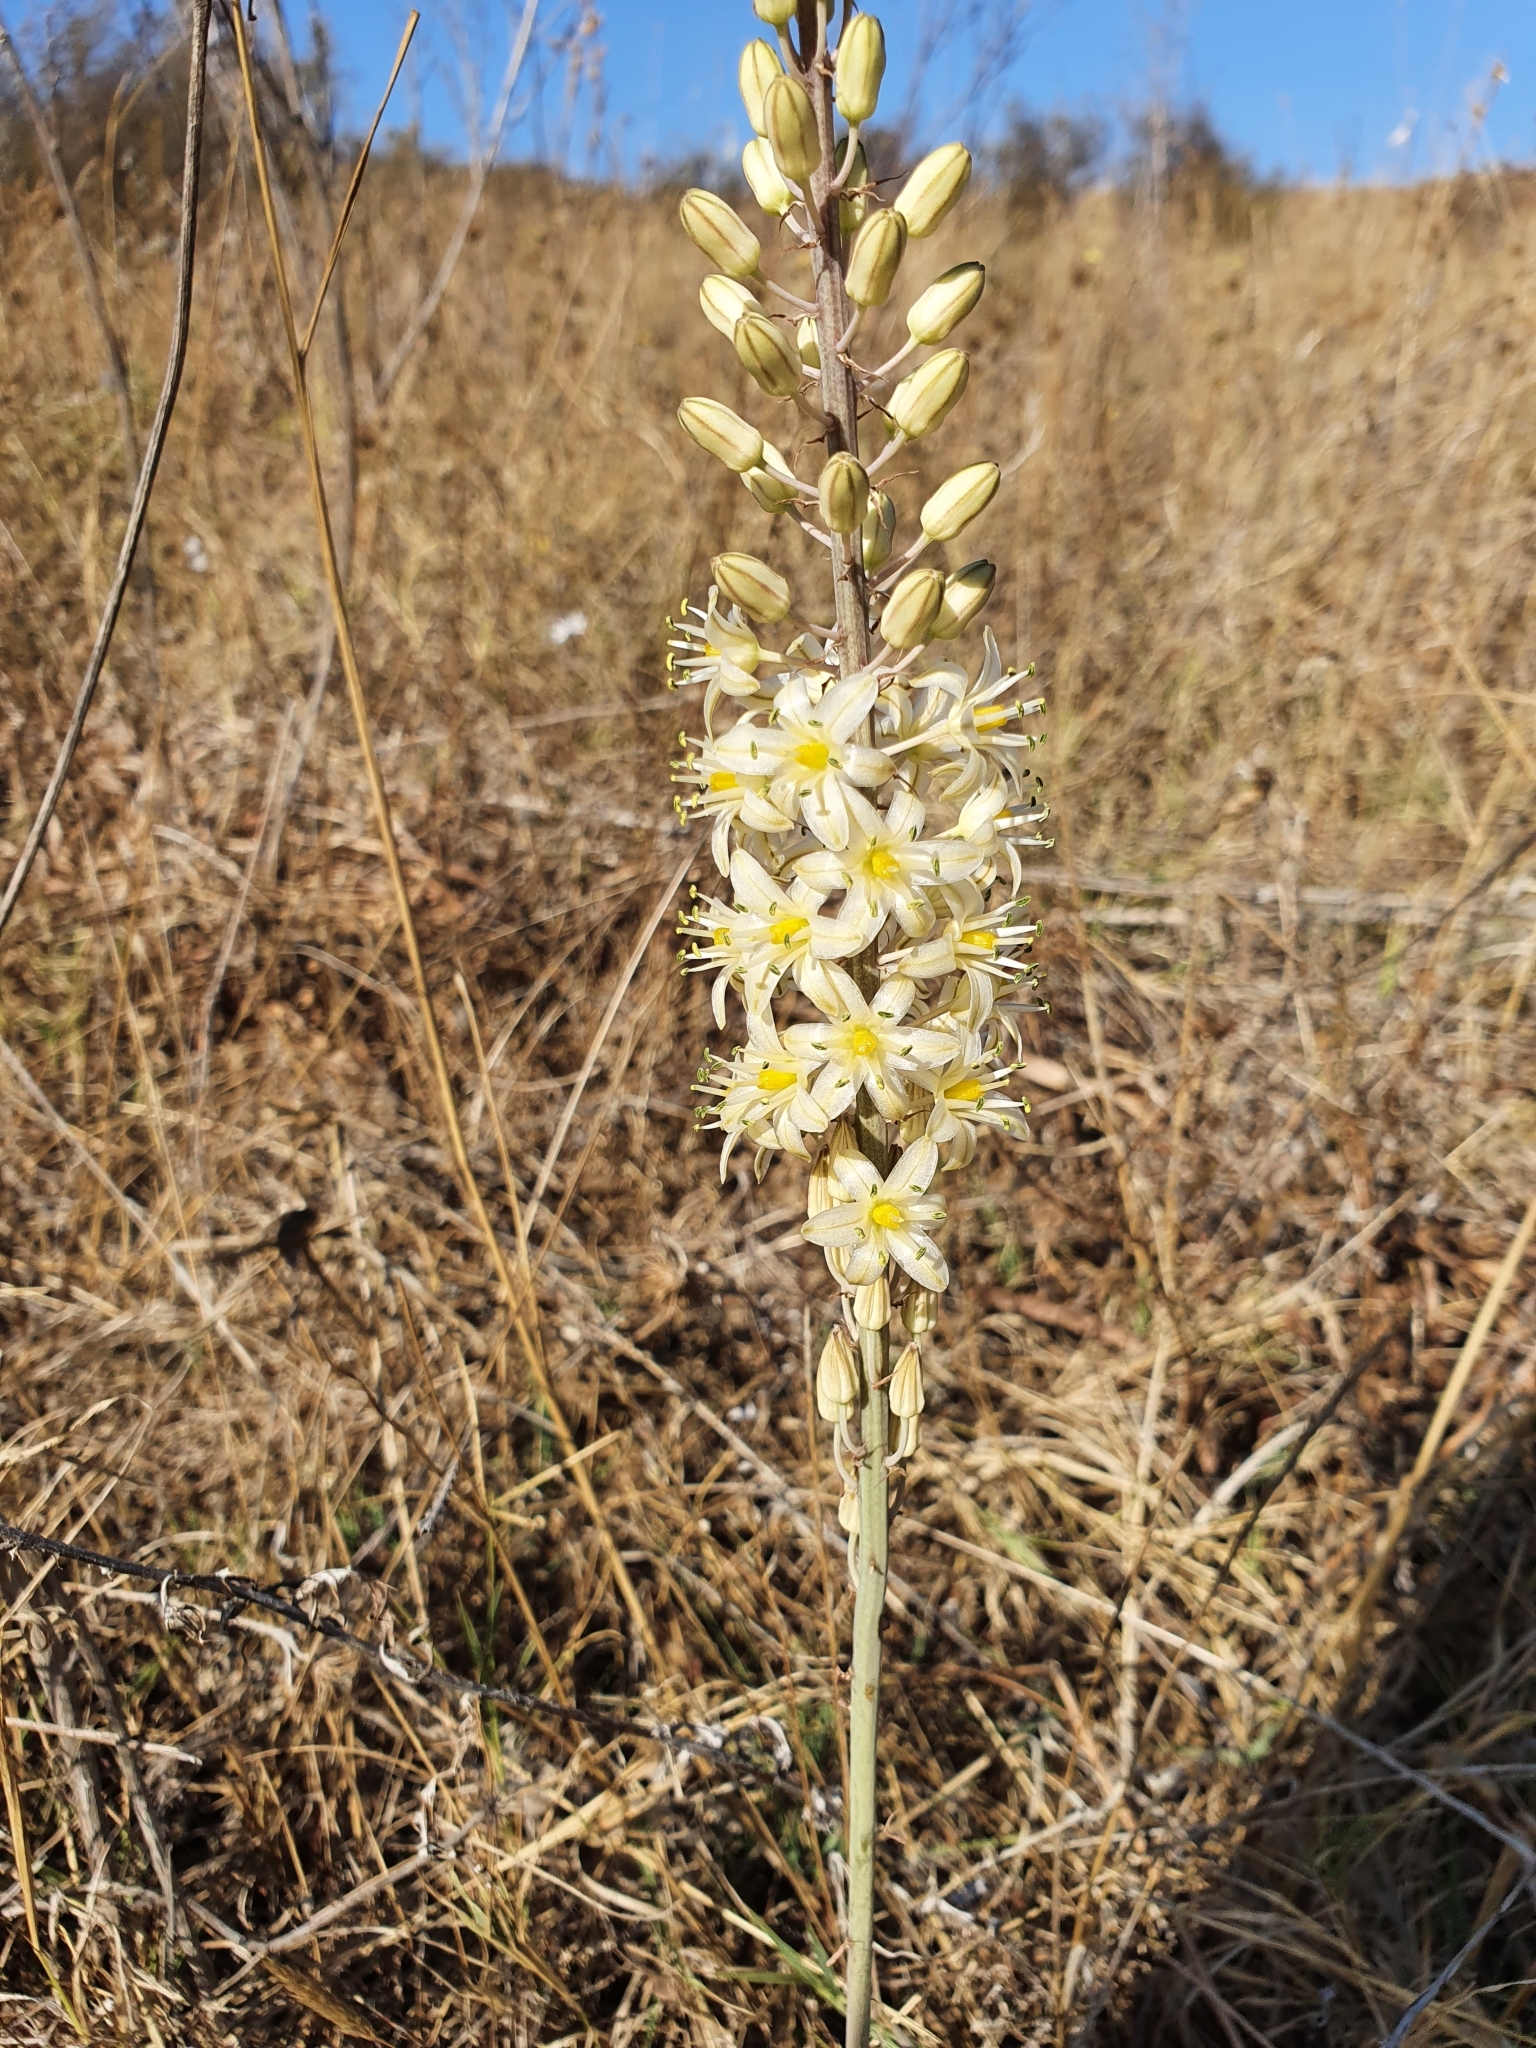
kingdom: Plantae
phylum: Tracheophyta
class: Liliopsida
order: Asparagales
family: Asparagaceae
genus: Drimia
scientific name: Drimia anthericoides
